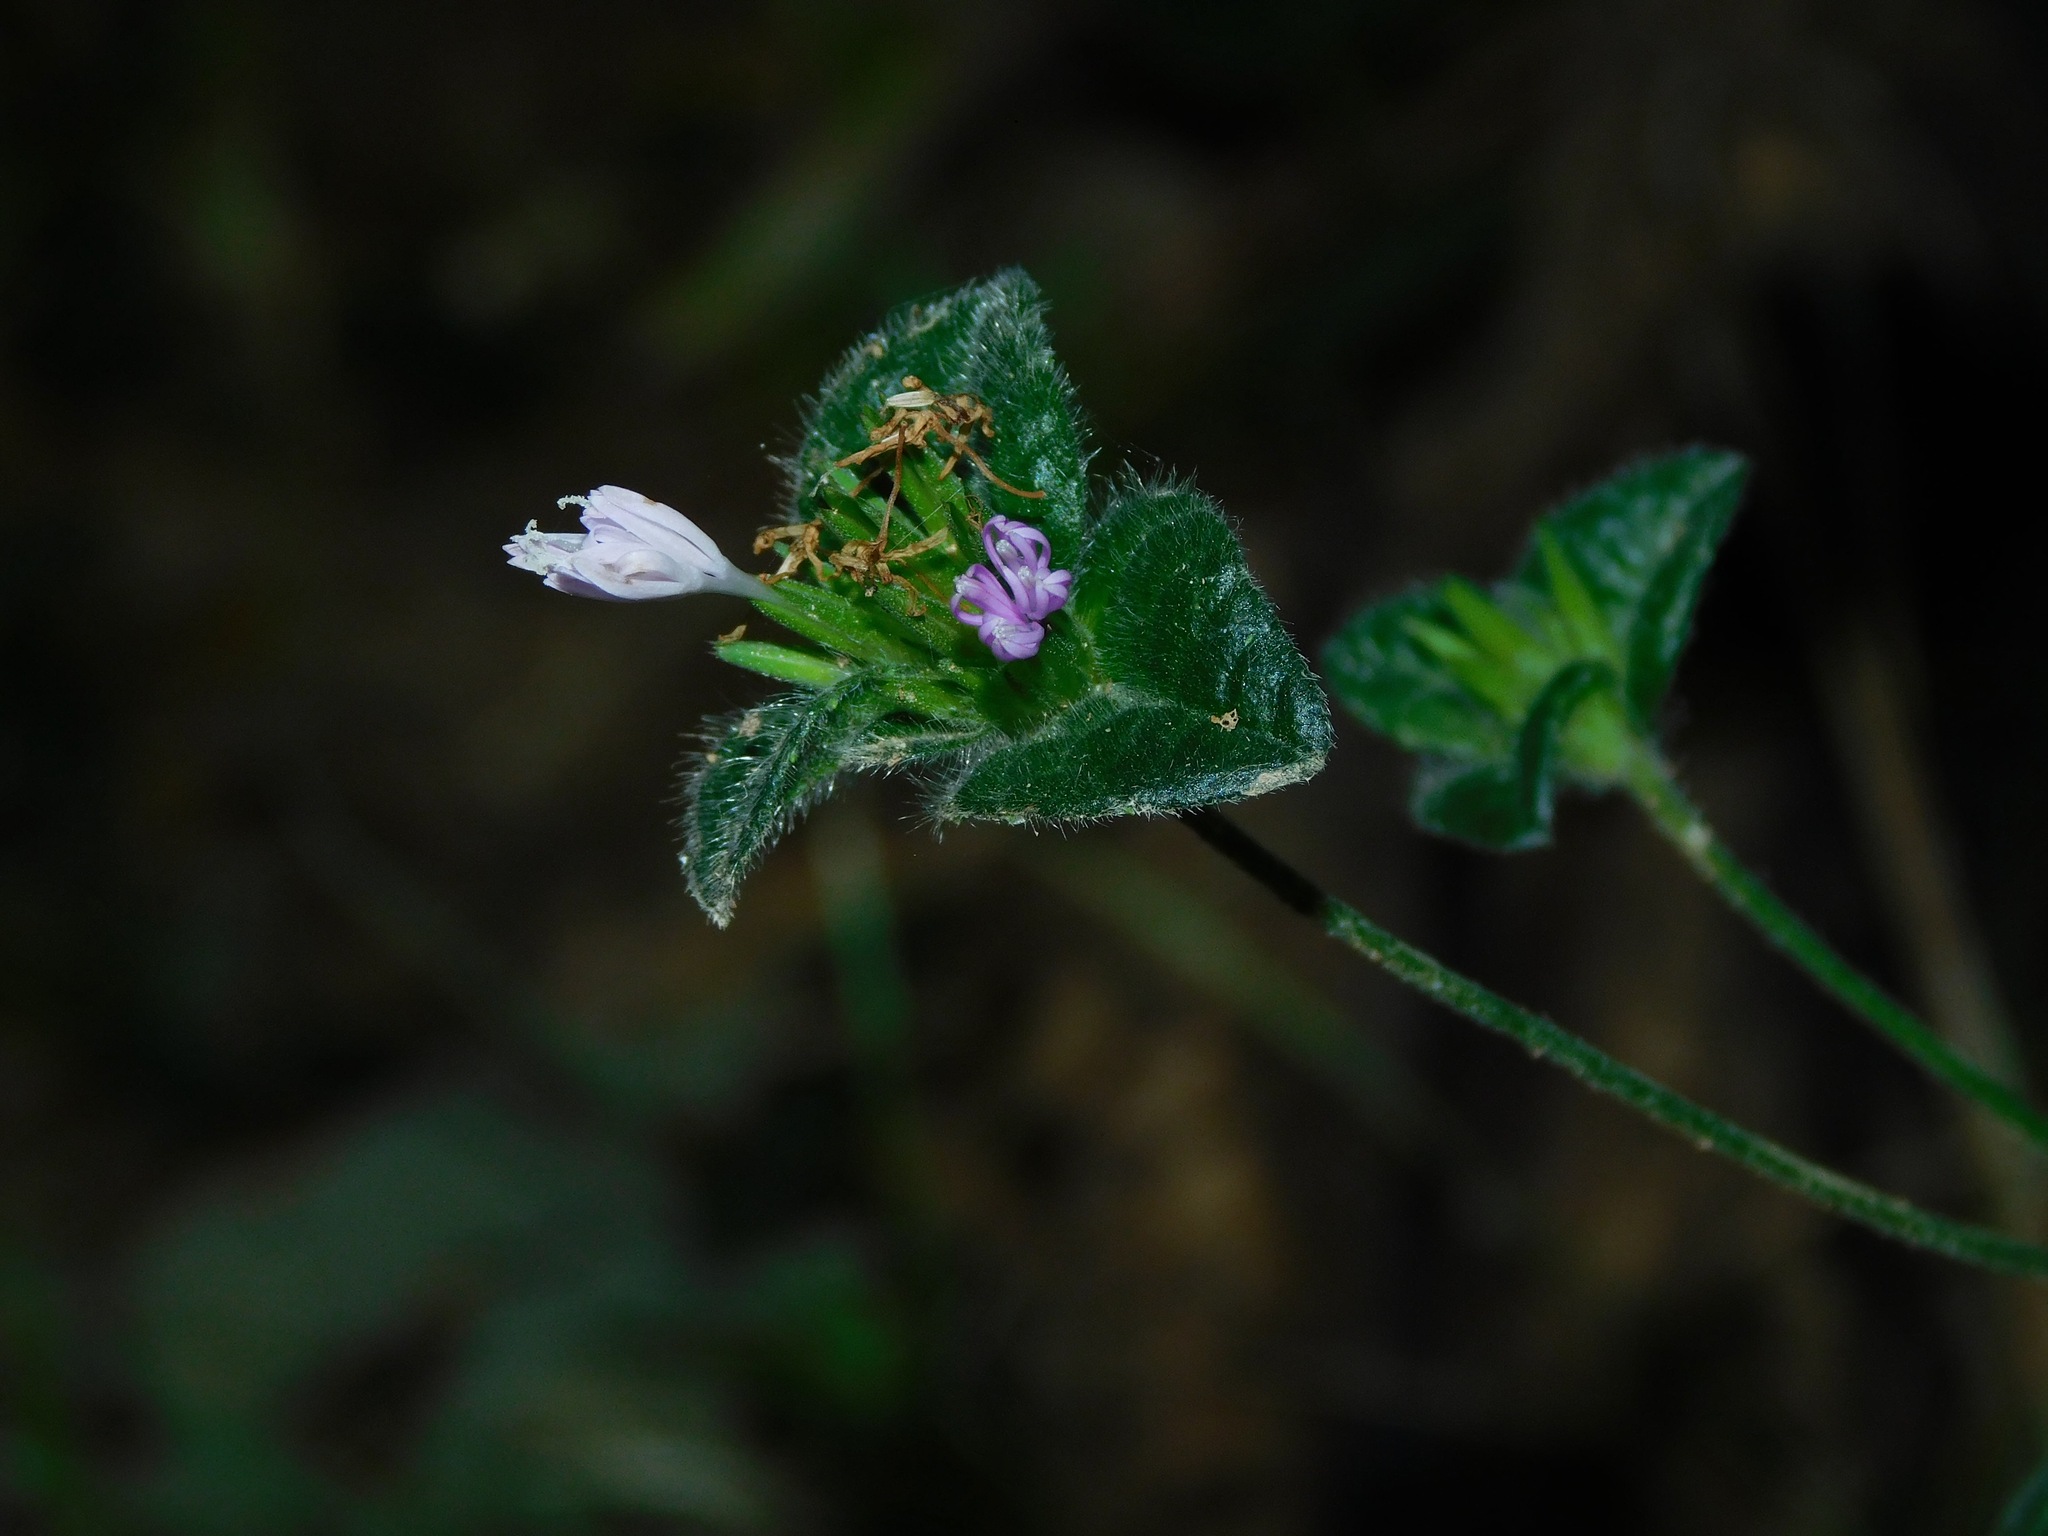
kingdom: Plantae
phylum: Tracheophyta
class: Magnoliopsida
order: Asterales
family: Asteraceae
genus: Elephantopus
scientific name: Elephantopus tomentosus
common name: Tobacco-weed
